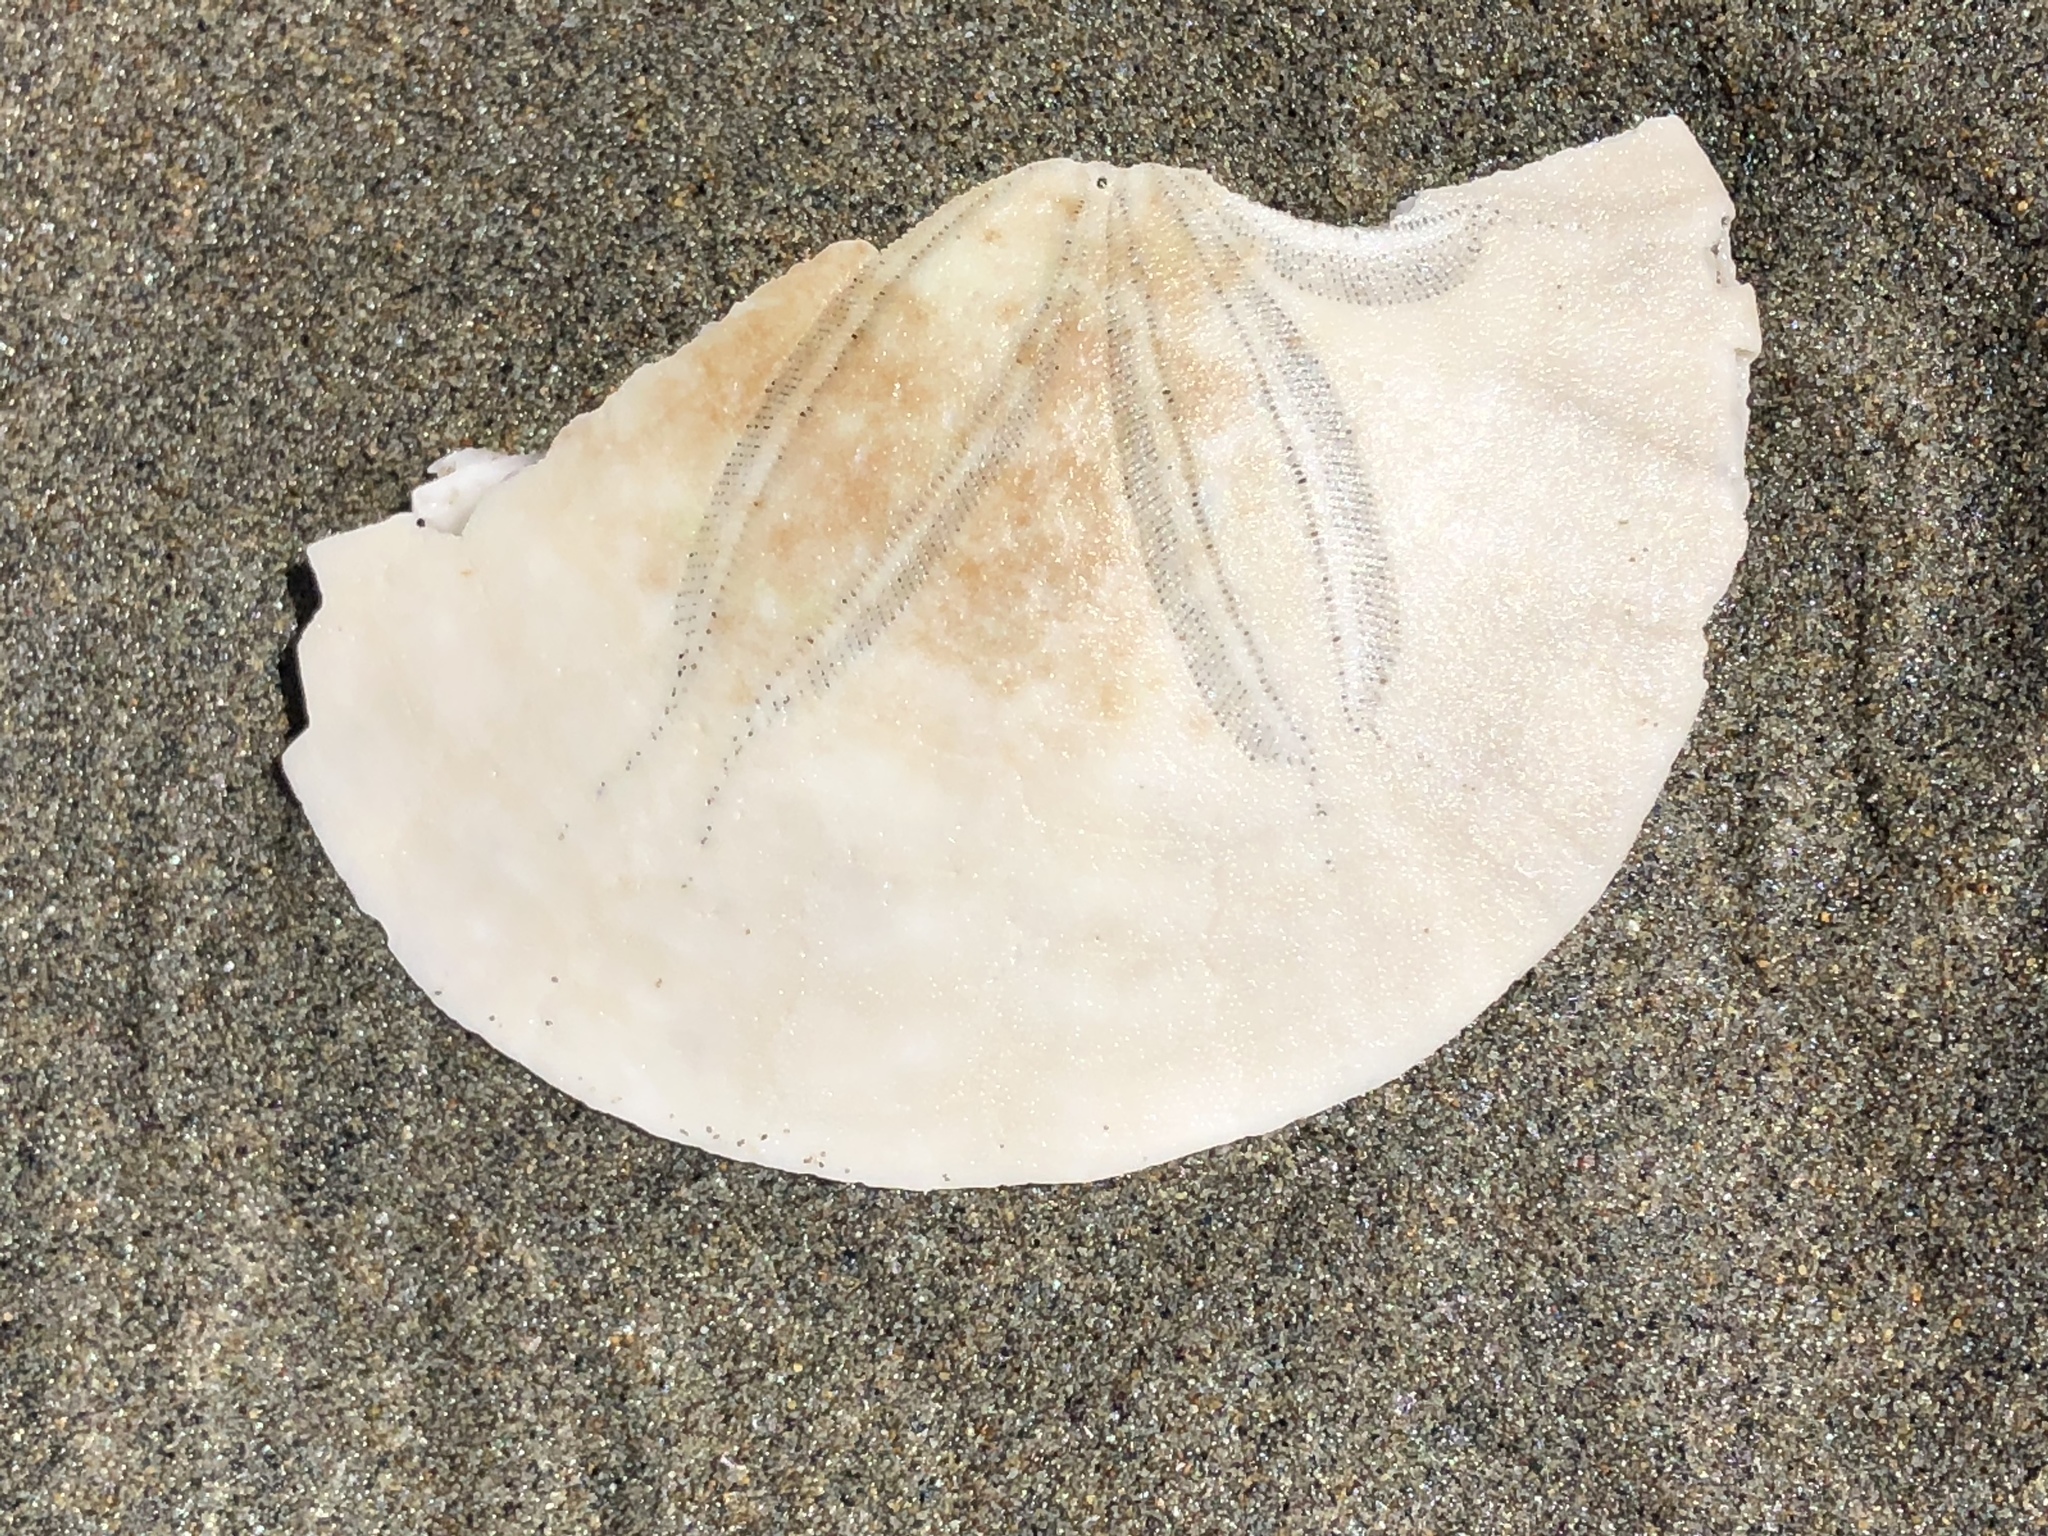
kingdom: Animalia
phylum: Echinodermata
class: Echinoidea
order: Echinolampadacea
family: Dendrasteridae
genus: Dendraster
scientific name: Dendraster excentricus
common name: Eccentric sand dollar sea urchin
